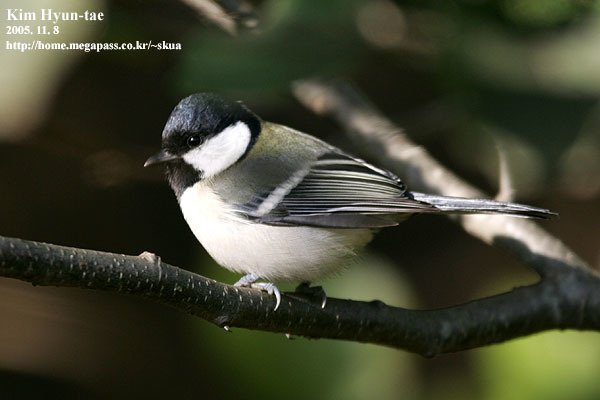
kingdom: Animalia
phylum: Chordata
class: Aves
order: Passeriformes
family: Paridae
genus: Parus
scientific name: Parus minor
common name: Japanese tit
